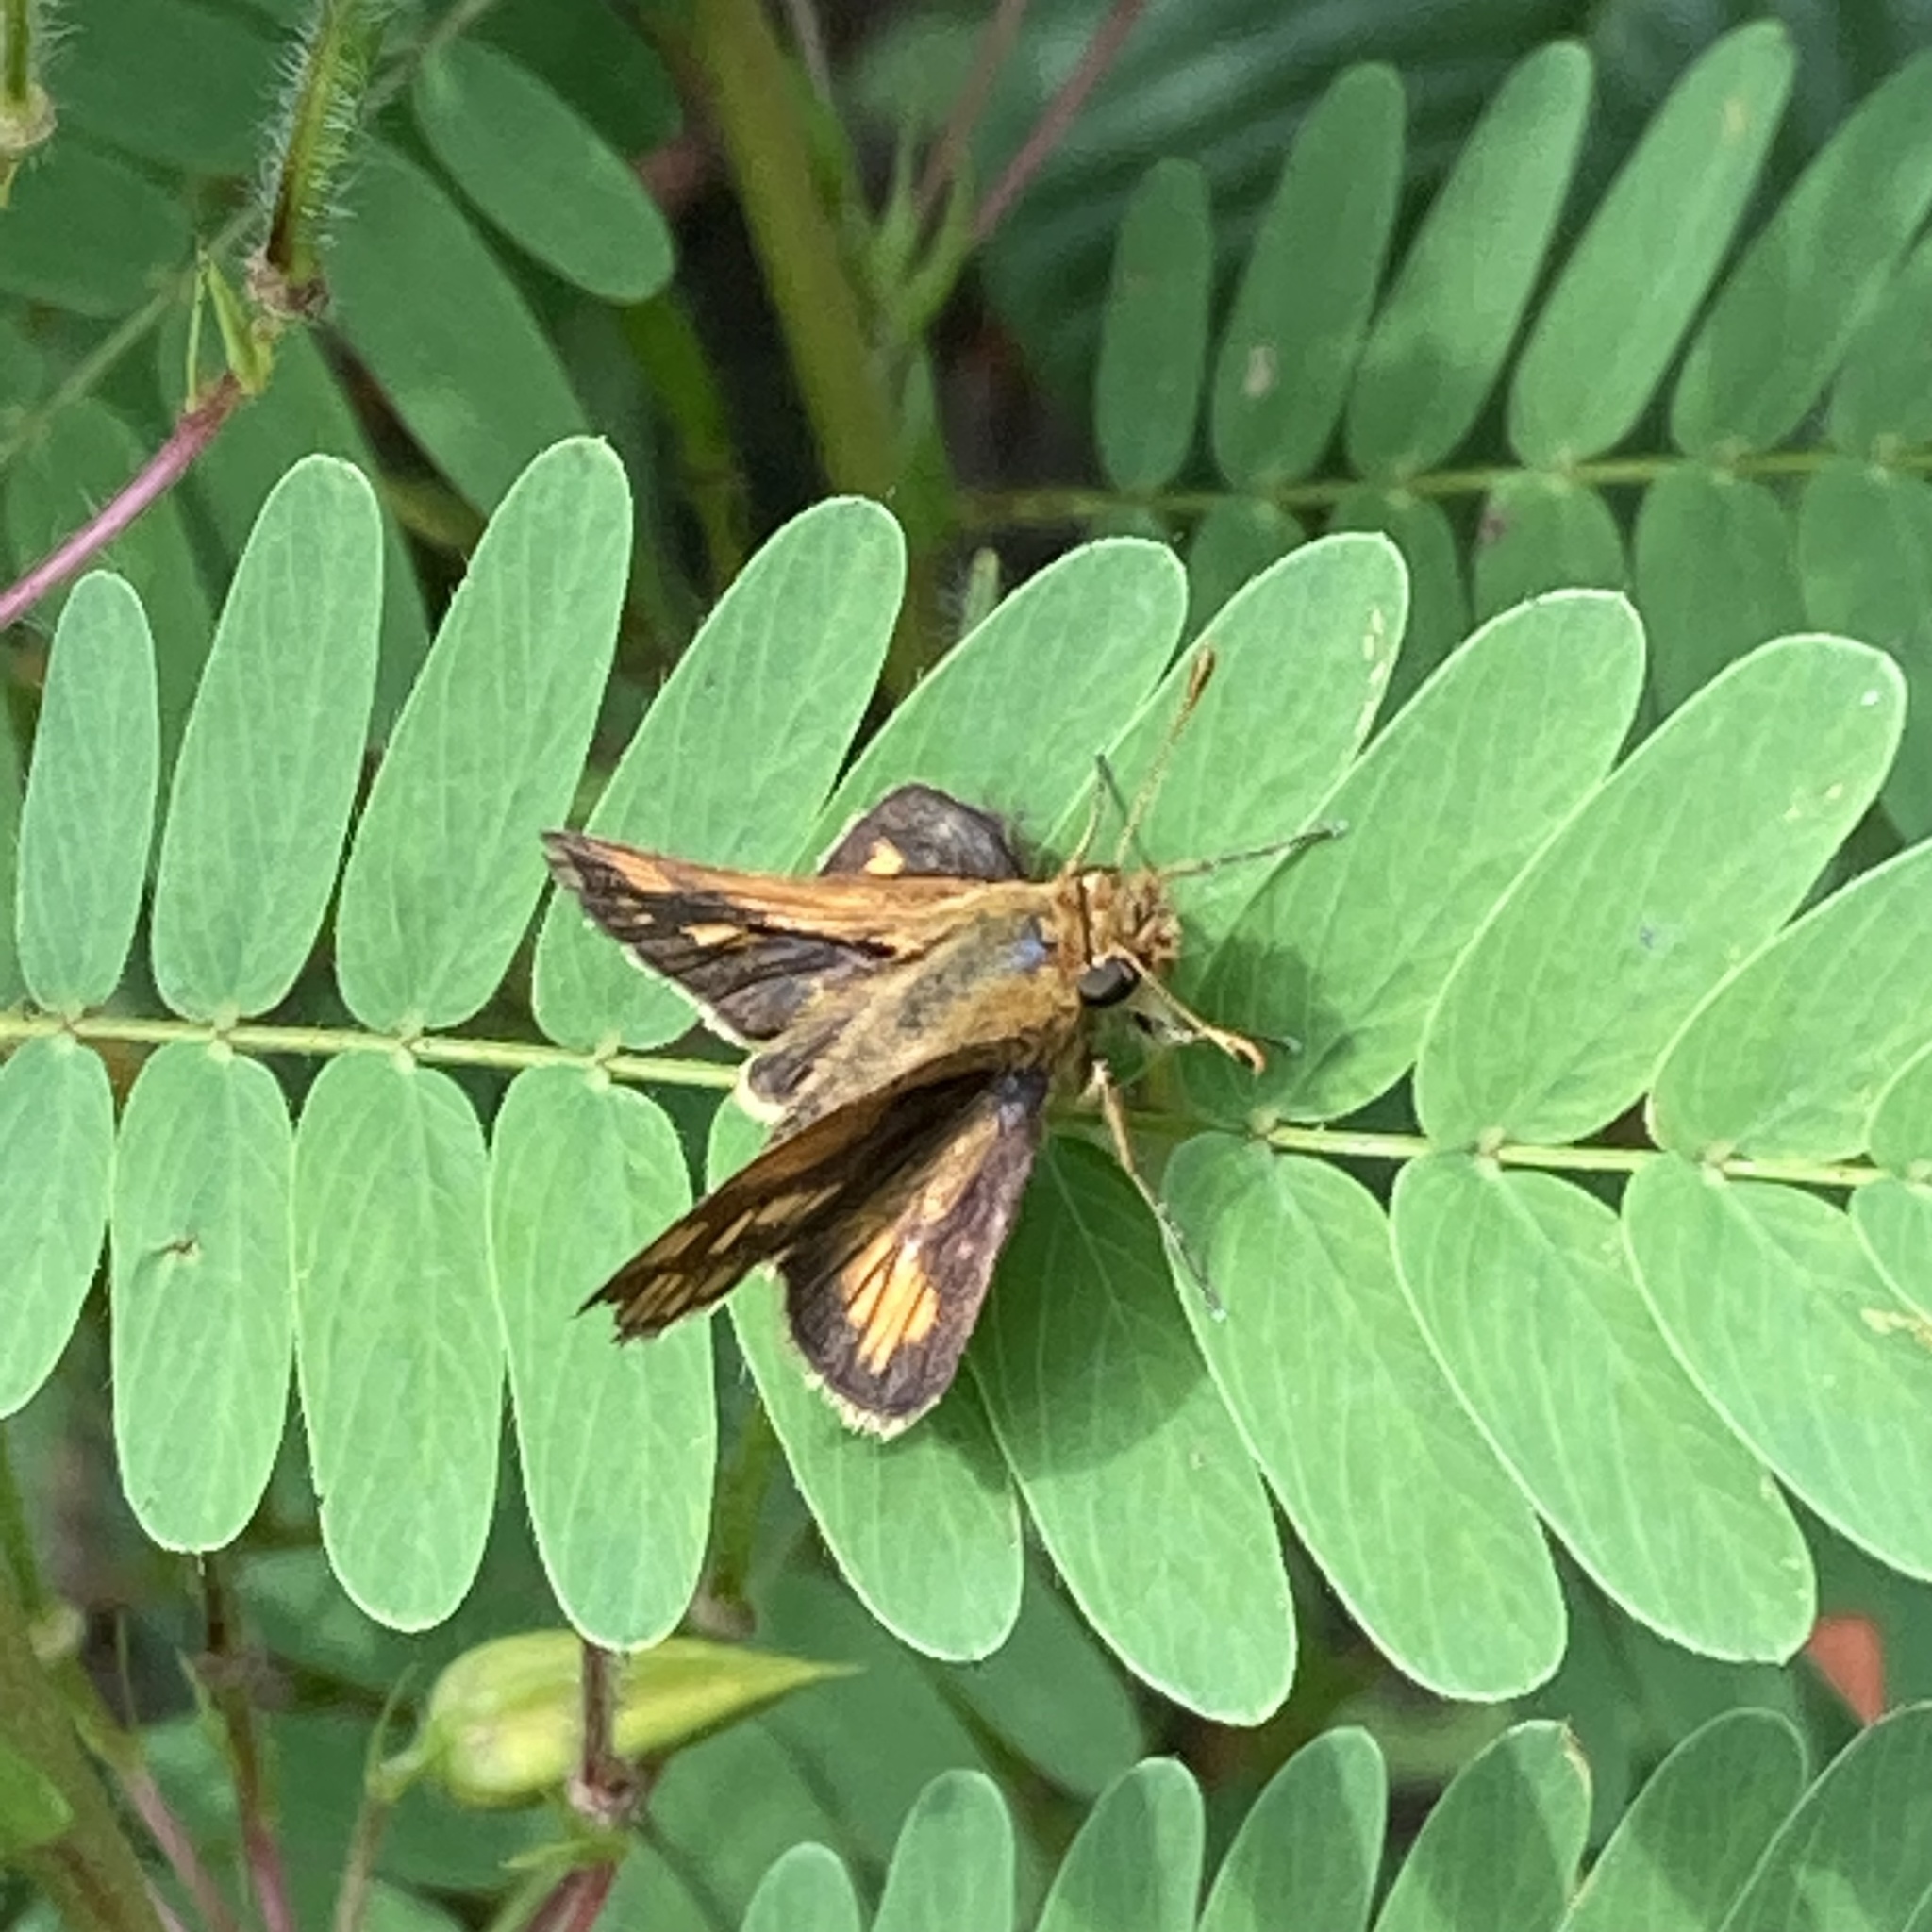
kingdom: Animalia
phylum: Arthropoda
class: Insecta
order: Lepidoptera
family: Hesperiidae
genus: Polites
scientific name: Polites coras
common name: Peck's skipper
